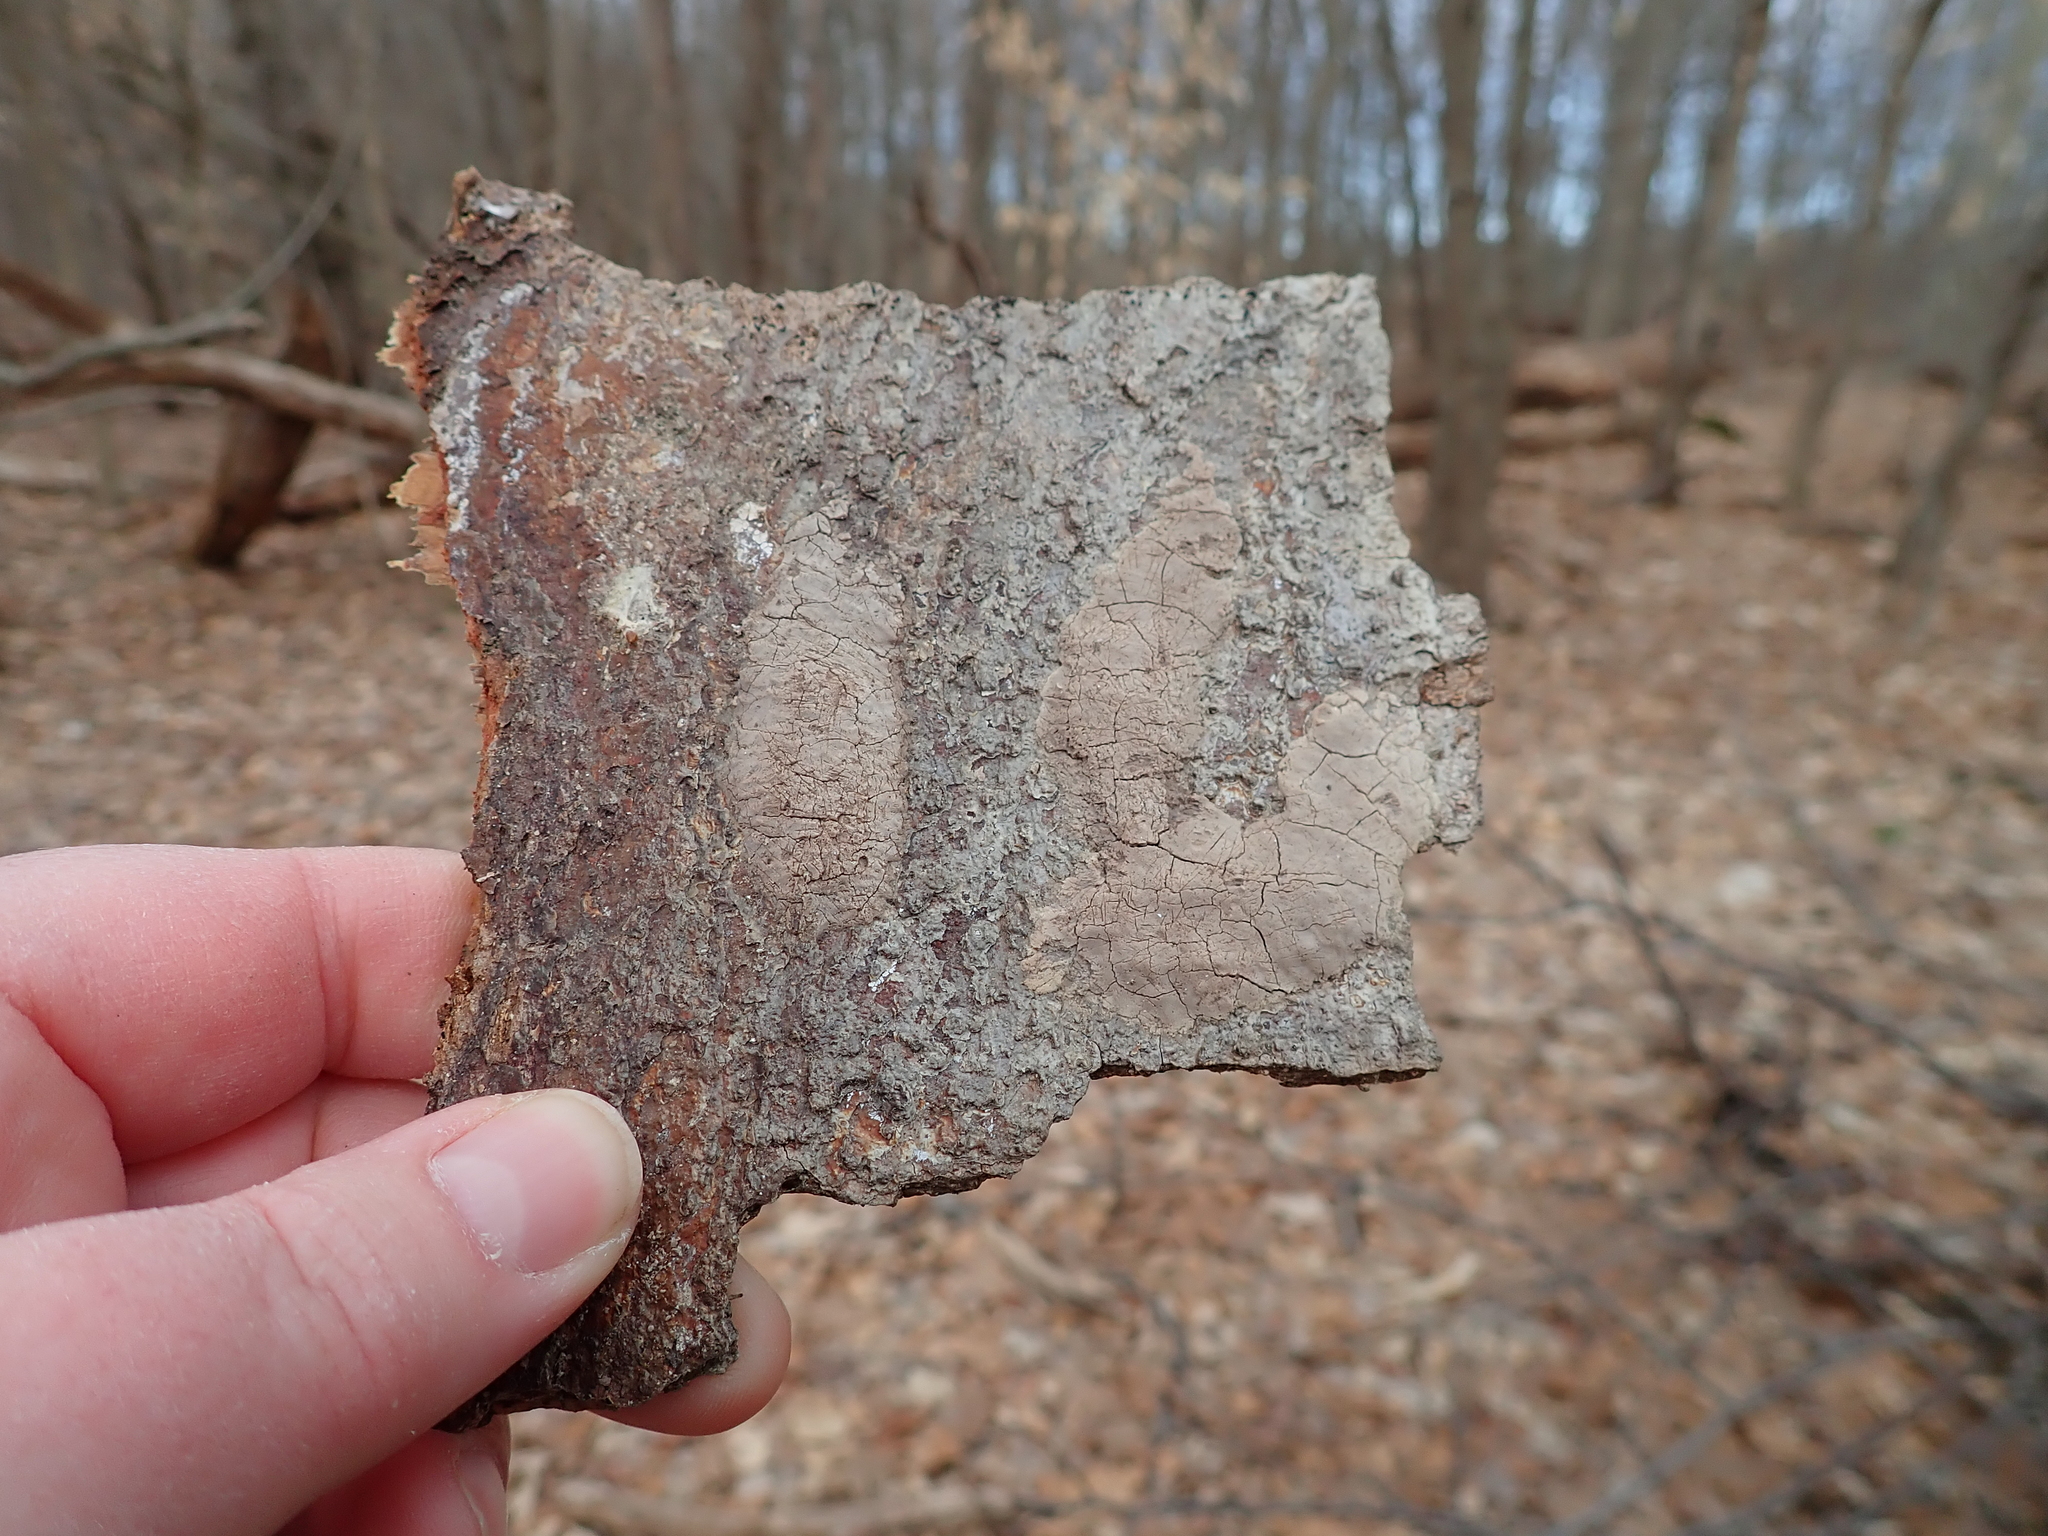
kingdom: Animalia
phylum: Arthropoda
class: Insecta
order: Hemiptera
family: Fulgoridae
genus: Lycorma
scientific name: Lycorma delicatula
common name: Spotted lanternfly
